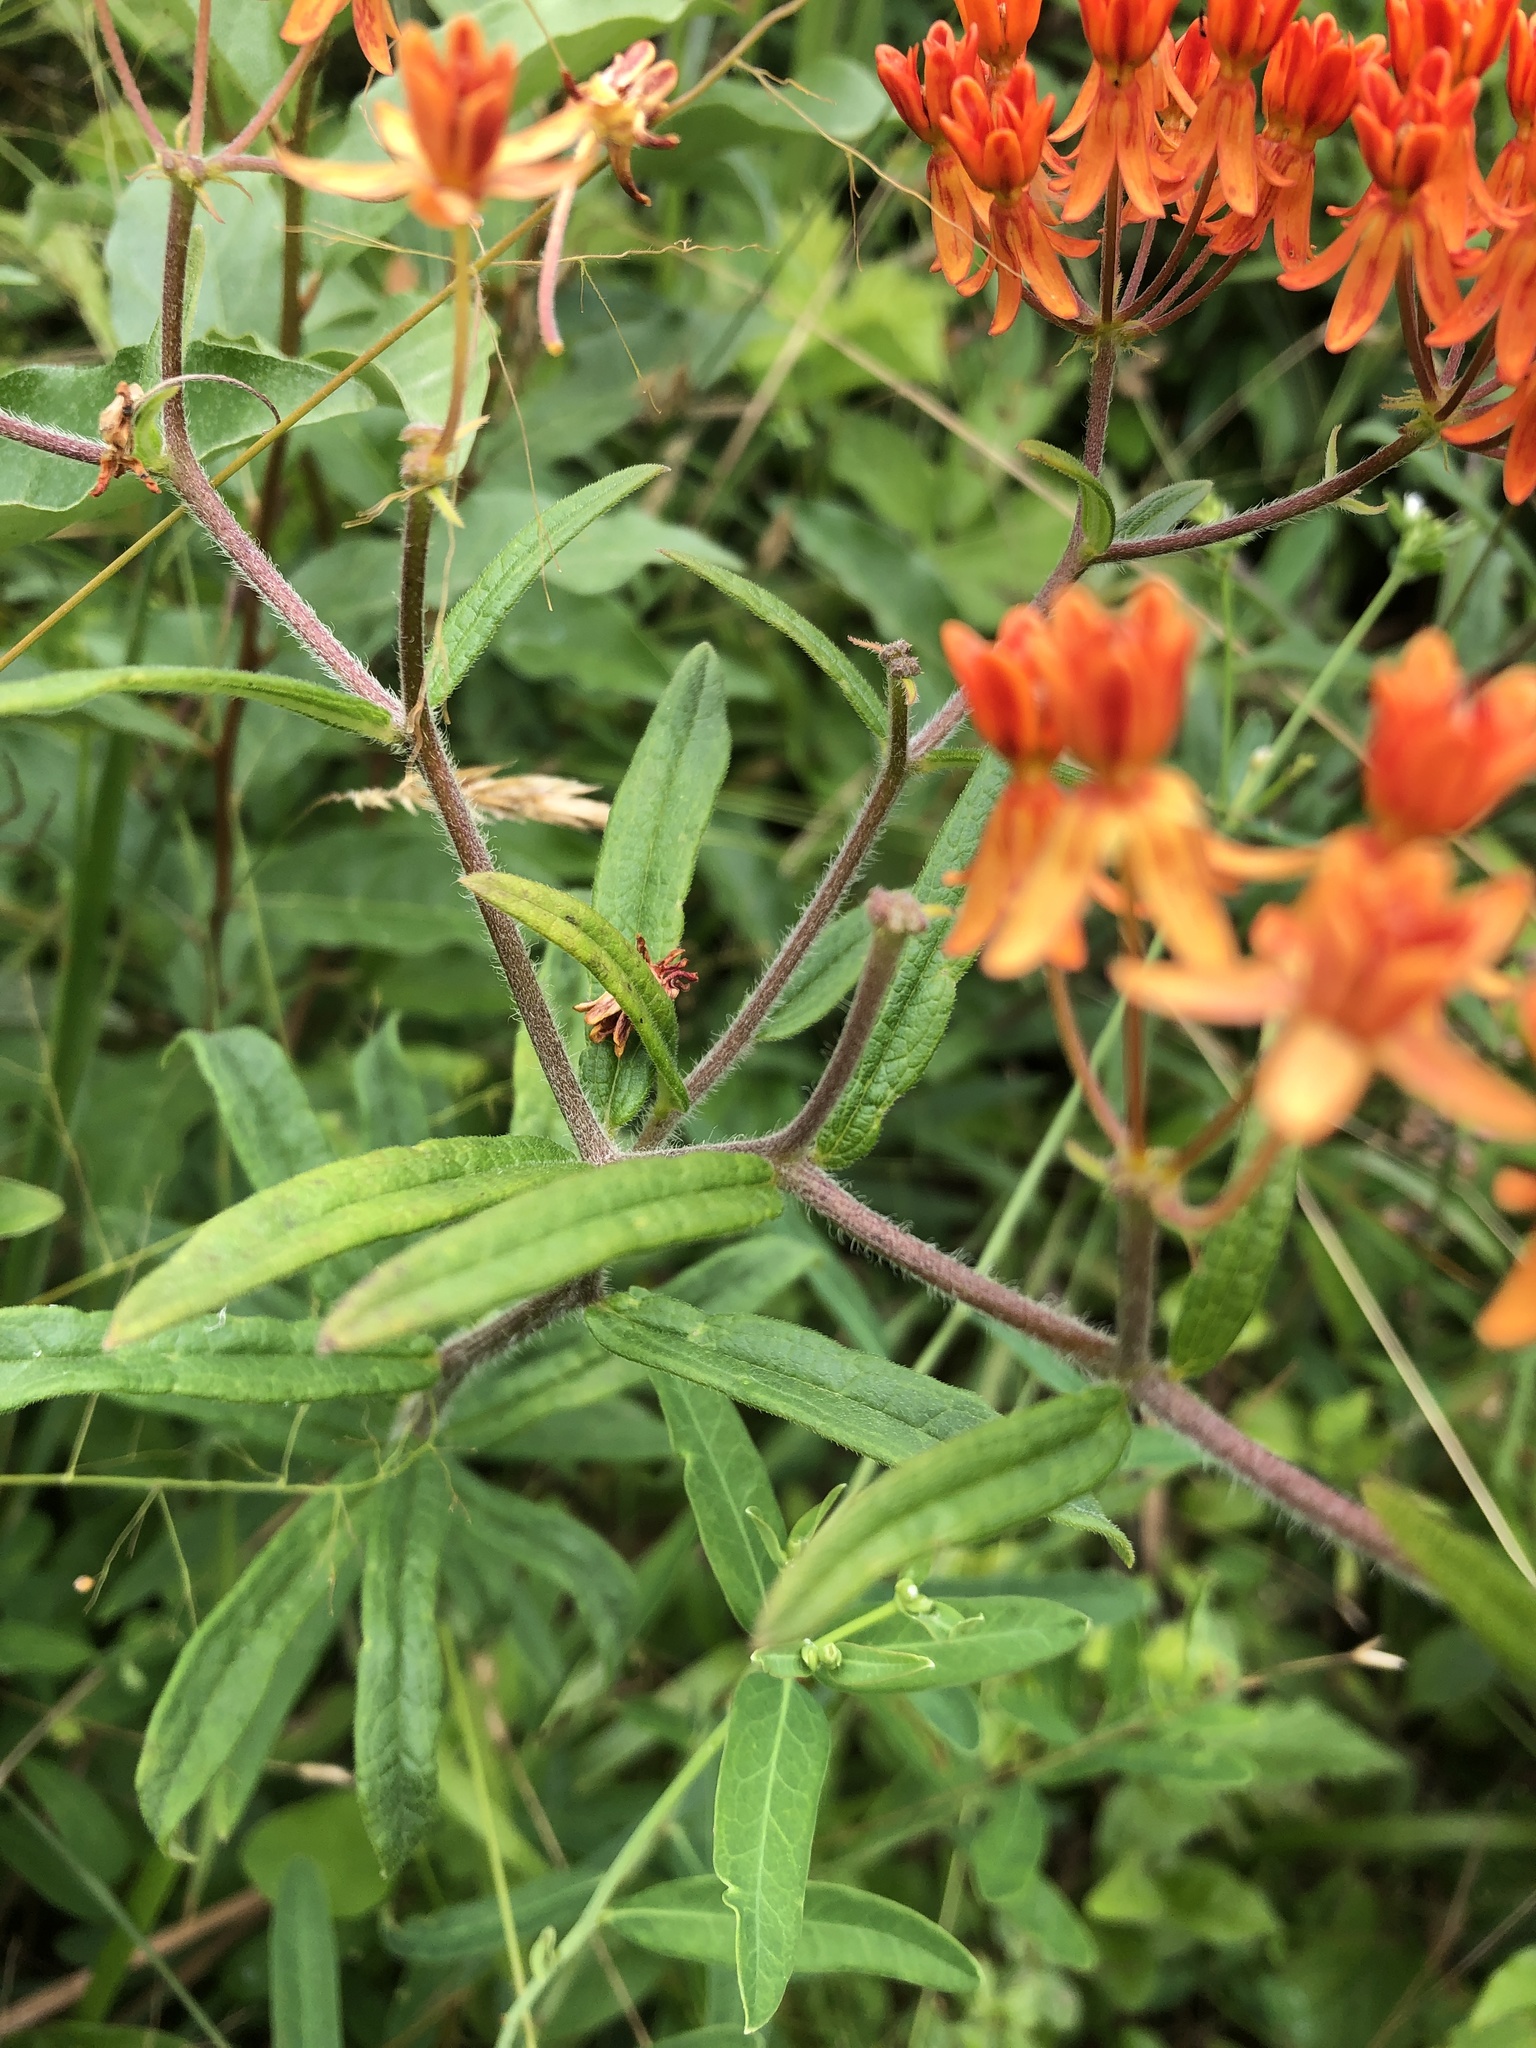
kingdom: Plantae
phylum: Tracheophyta
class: Magnoliopsida
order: Gentianales
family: Apocynaceae
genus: Asclepias
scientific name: Asclepias tuberosa
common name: Butterfly milkweed
